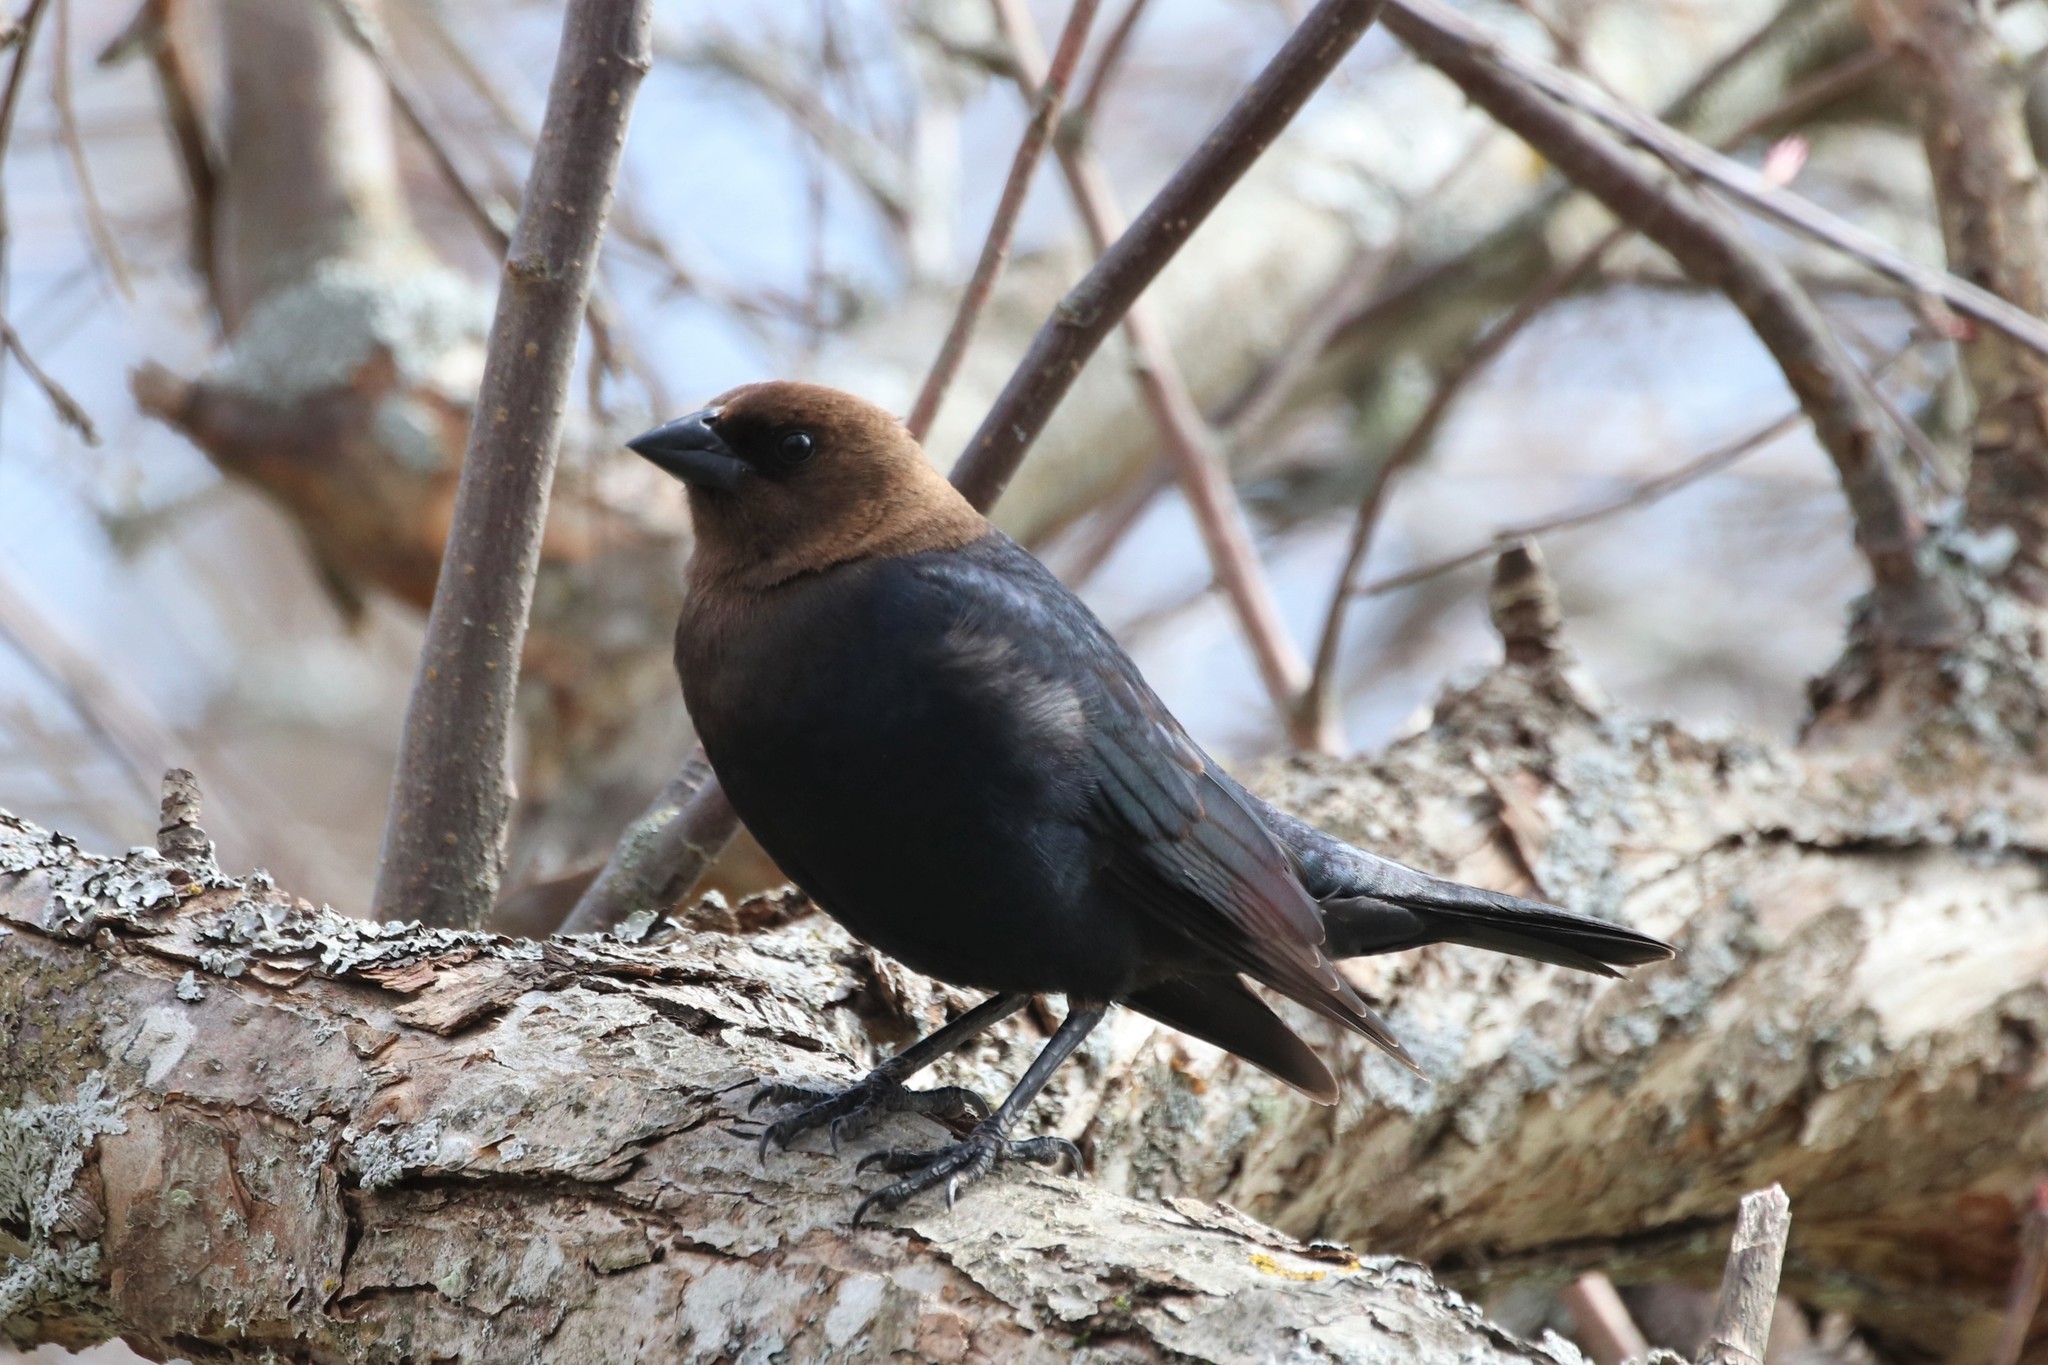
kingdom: Animalia
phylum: Chordata
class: Aves
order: Passeriformes
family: Icteridae
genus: Molothrus
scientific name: Molothrus ater
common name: Brown-headed cowbird
